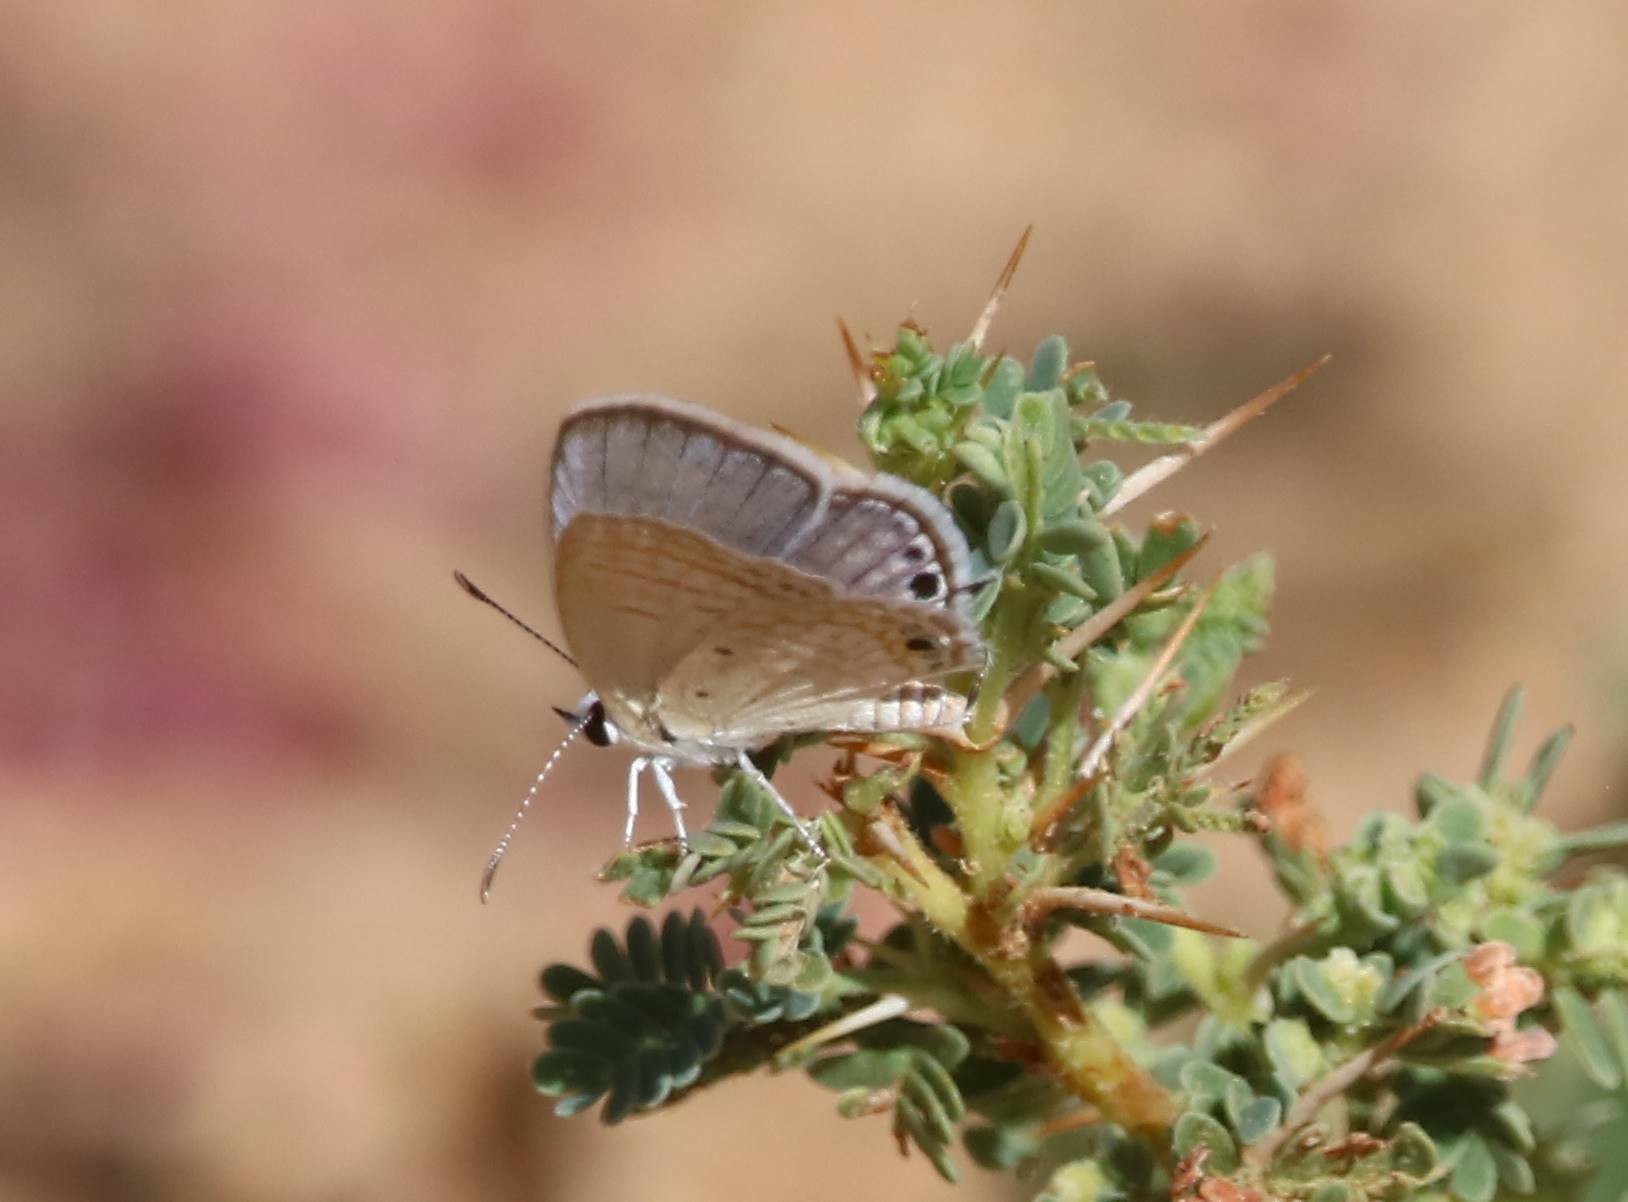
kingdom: Animalia
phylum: Arthropoda
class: Insecta
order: Lepidoptera
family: Lycaenidae
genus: Chilades
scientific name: Chilades eleusis
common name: Sky-blue cupid
